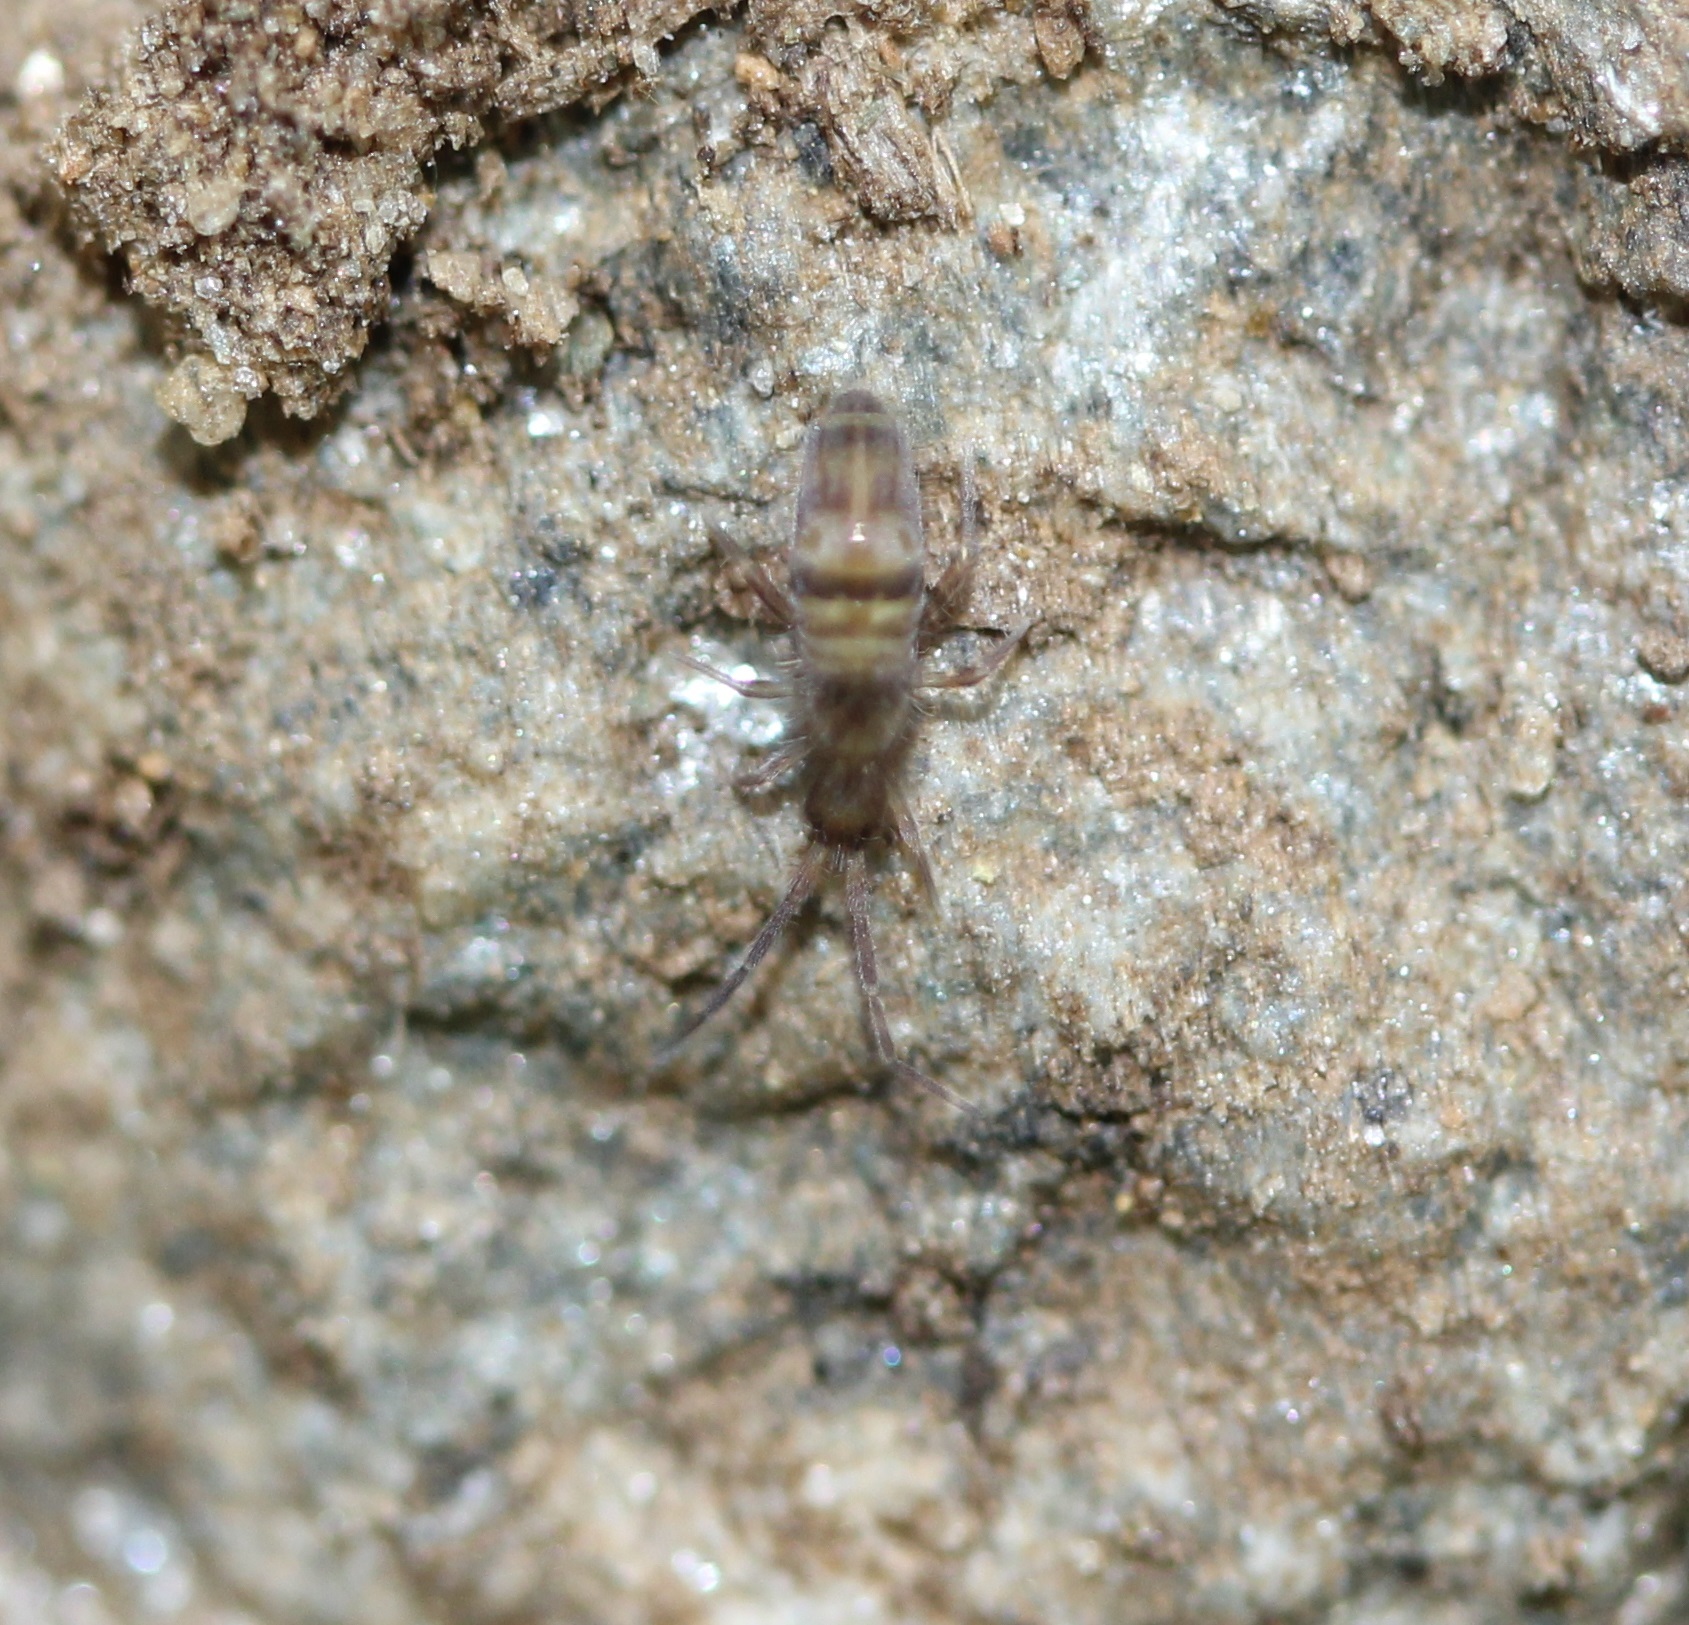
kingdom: Animalia
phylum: Arthropoda
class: Collembola
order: Entomobryomorpha
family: Entomobryidae
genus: Homidia
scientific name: Homidia sauteri
